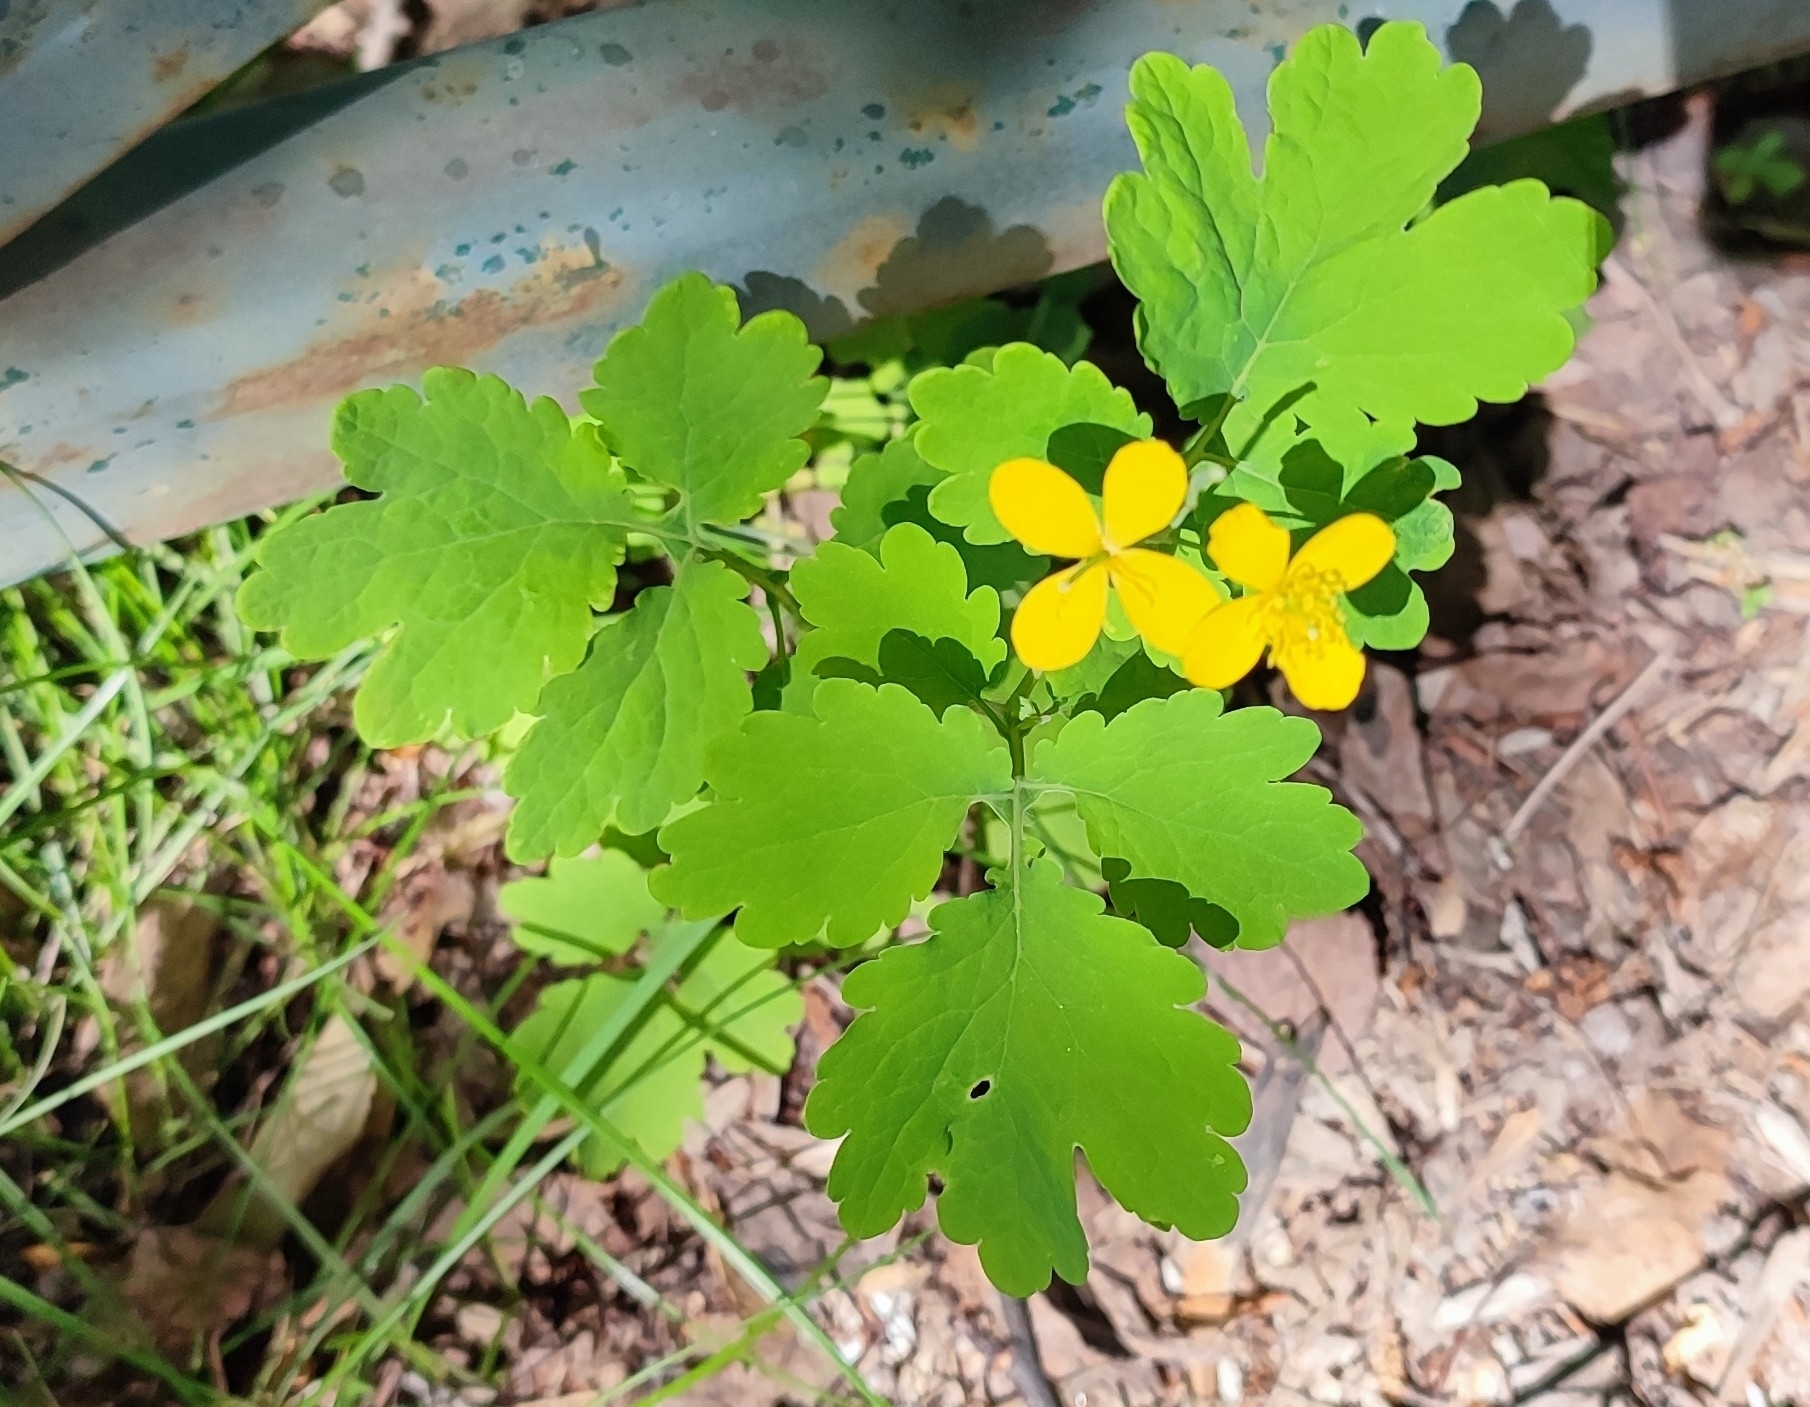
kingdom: Plantae
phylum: Tracheophyta
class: Magnoliopsida
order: Ranunculales
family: Papaveraceae
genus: Chelidonium
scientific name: Chelidonium majus
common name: Greater celandine
